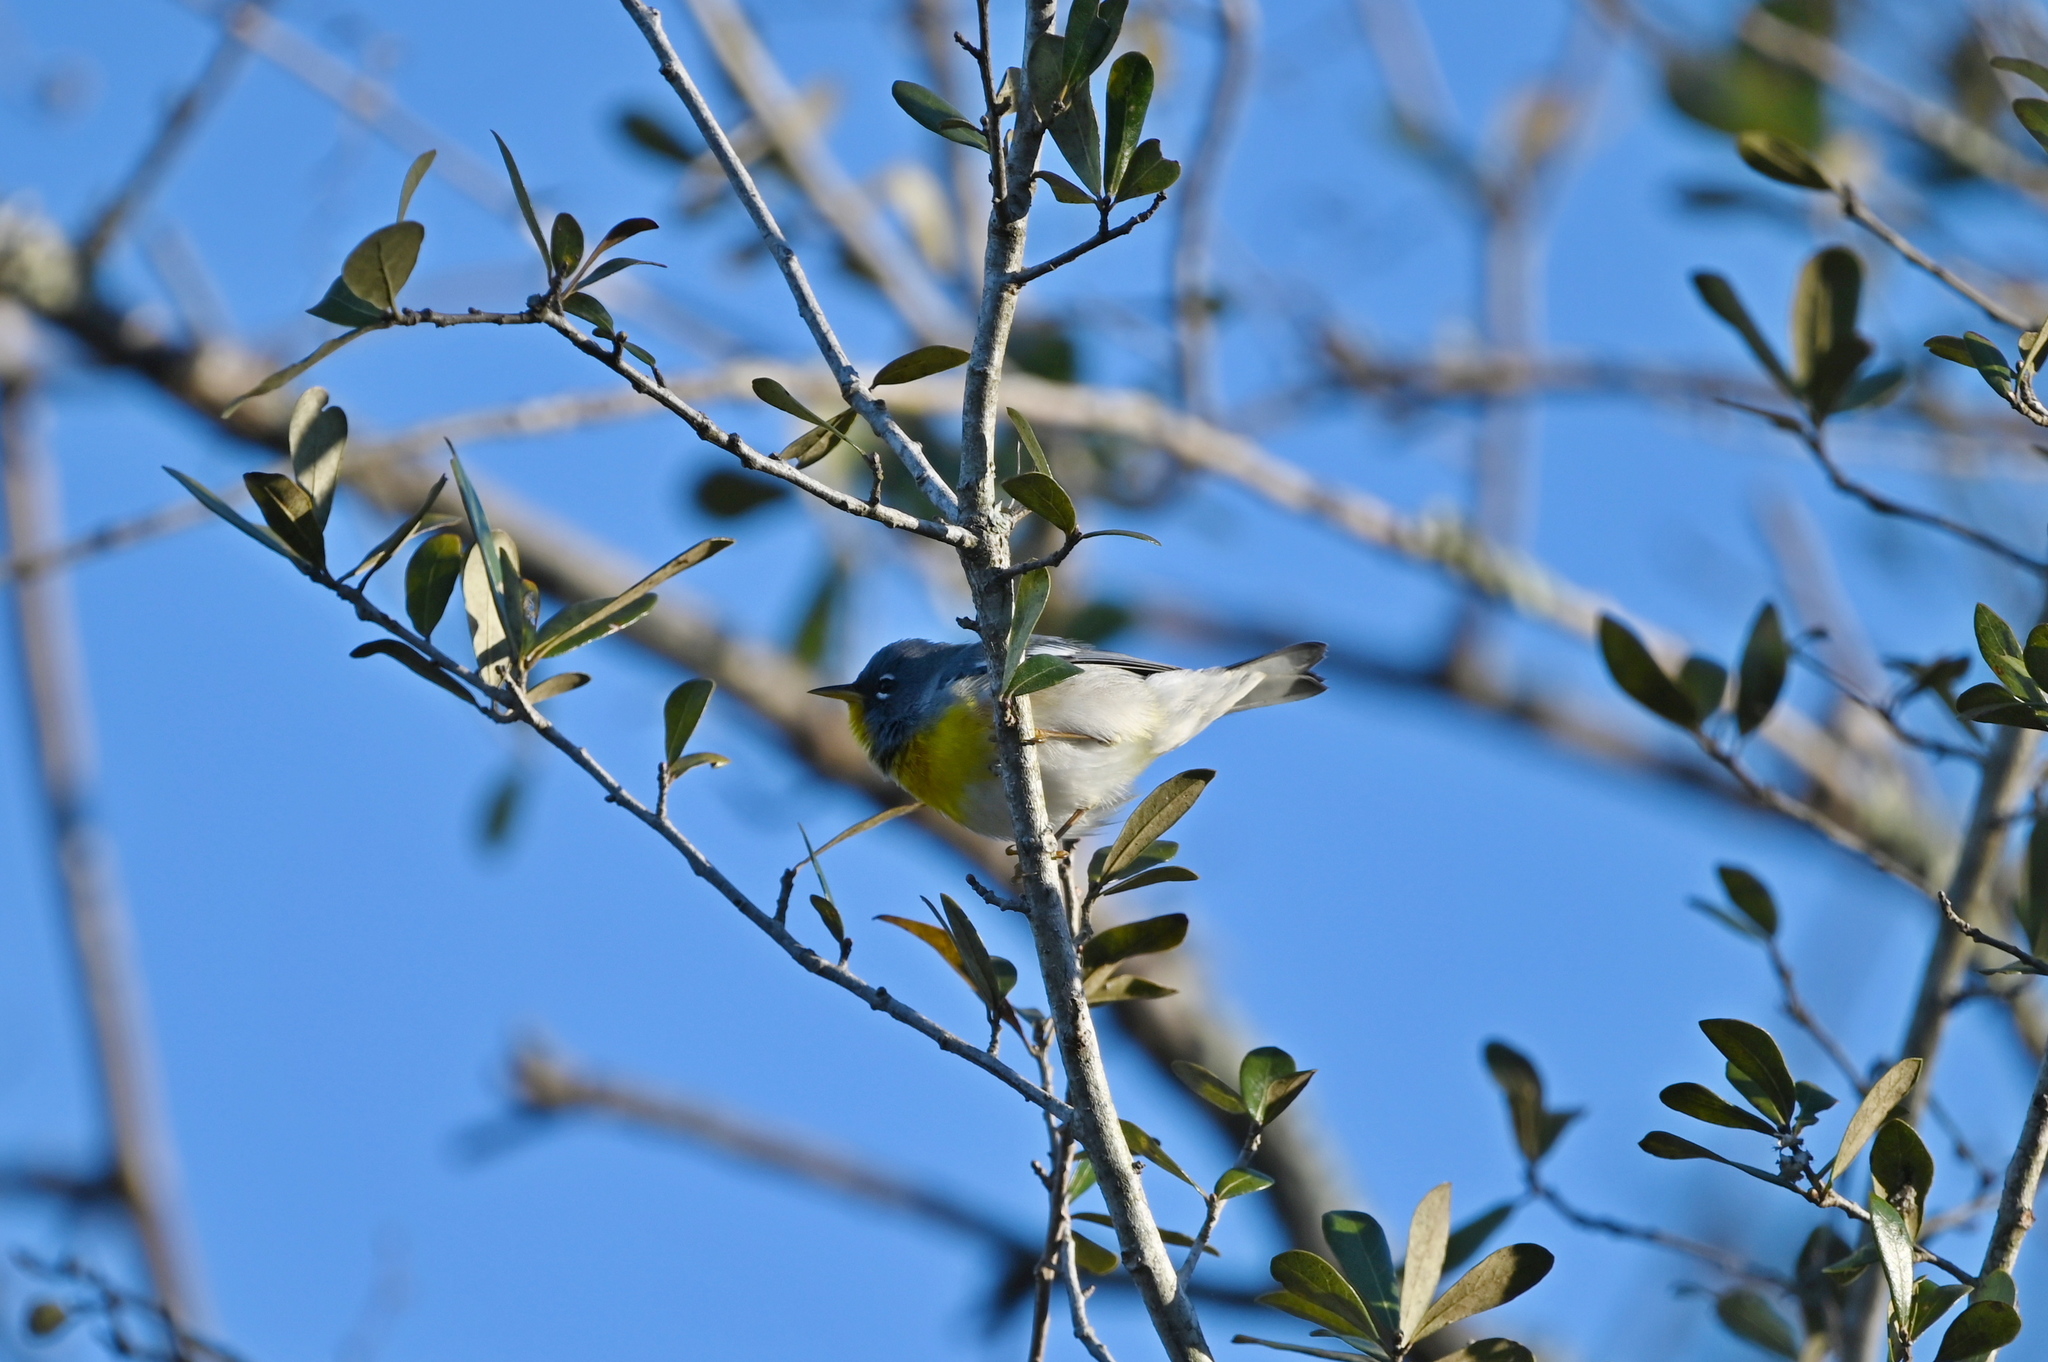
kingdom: Animalia
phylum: Chordata
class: Aves
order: Passeriformes
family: Parulidae
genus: Setophaga
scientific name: Setophaga americana
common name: Northern parula
